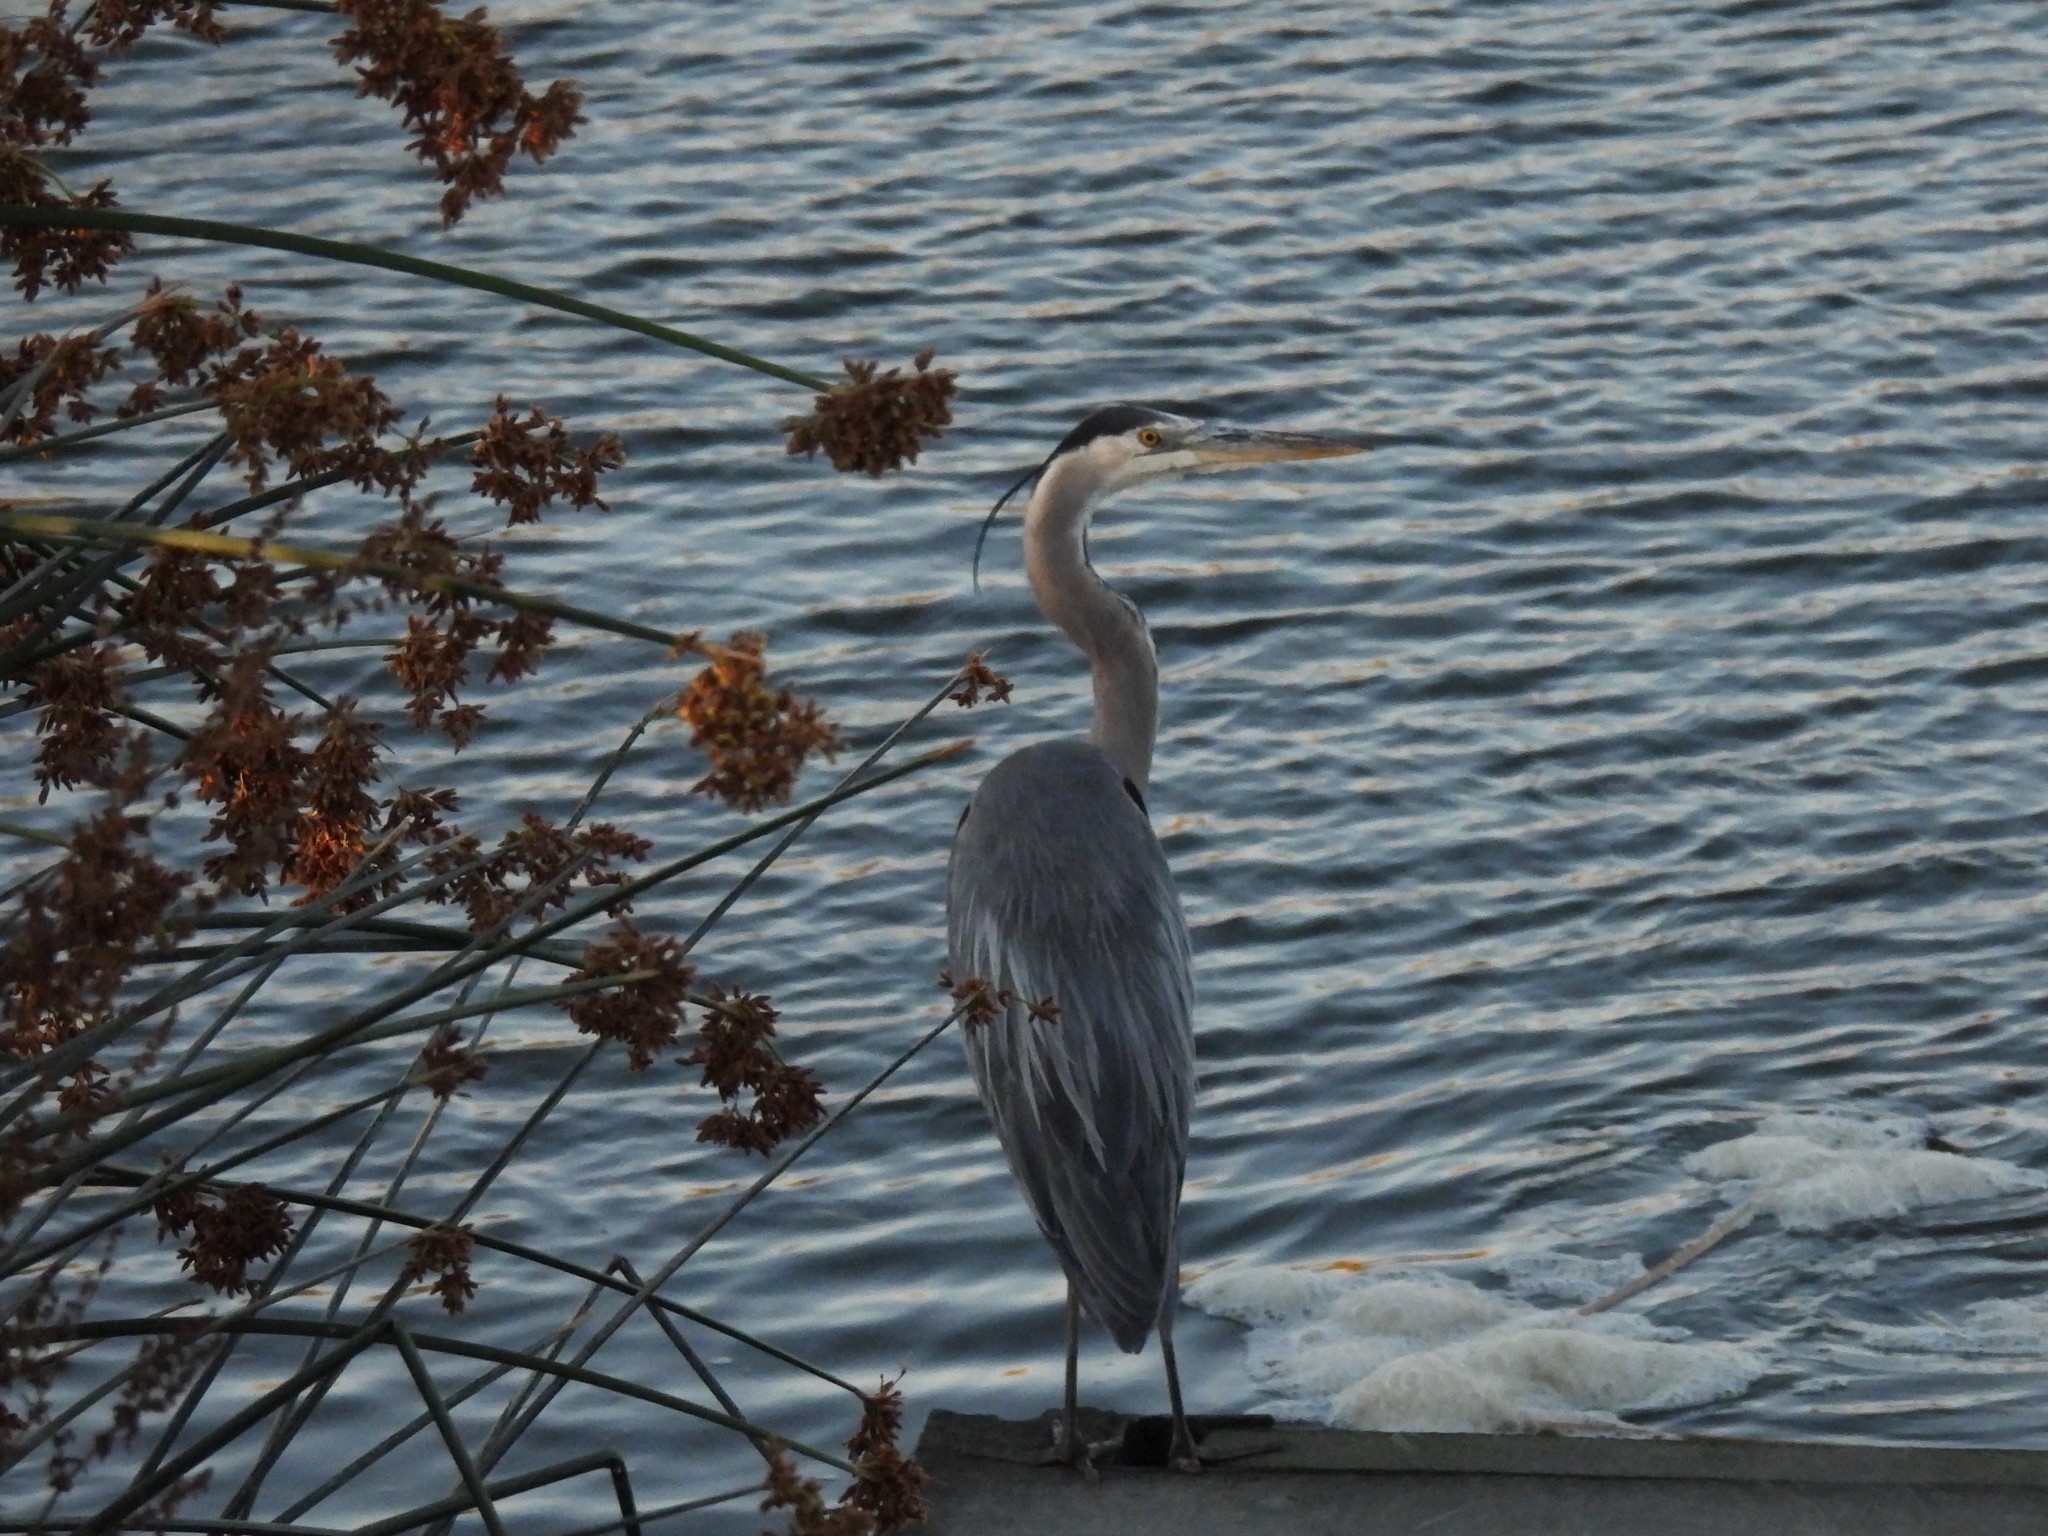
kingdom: Animalia
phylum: Chordata
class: Aves
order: Pelecaniformes
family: Ardeidae
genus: Ardea
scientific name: Ardea herodias
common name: Great blue heron
